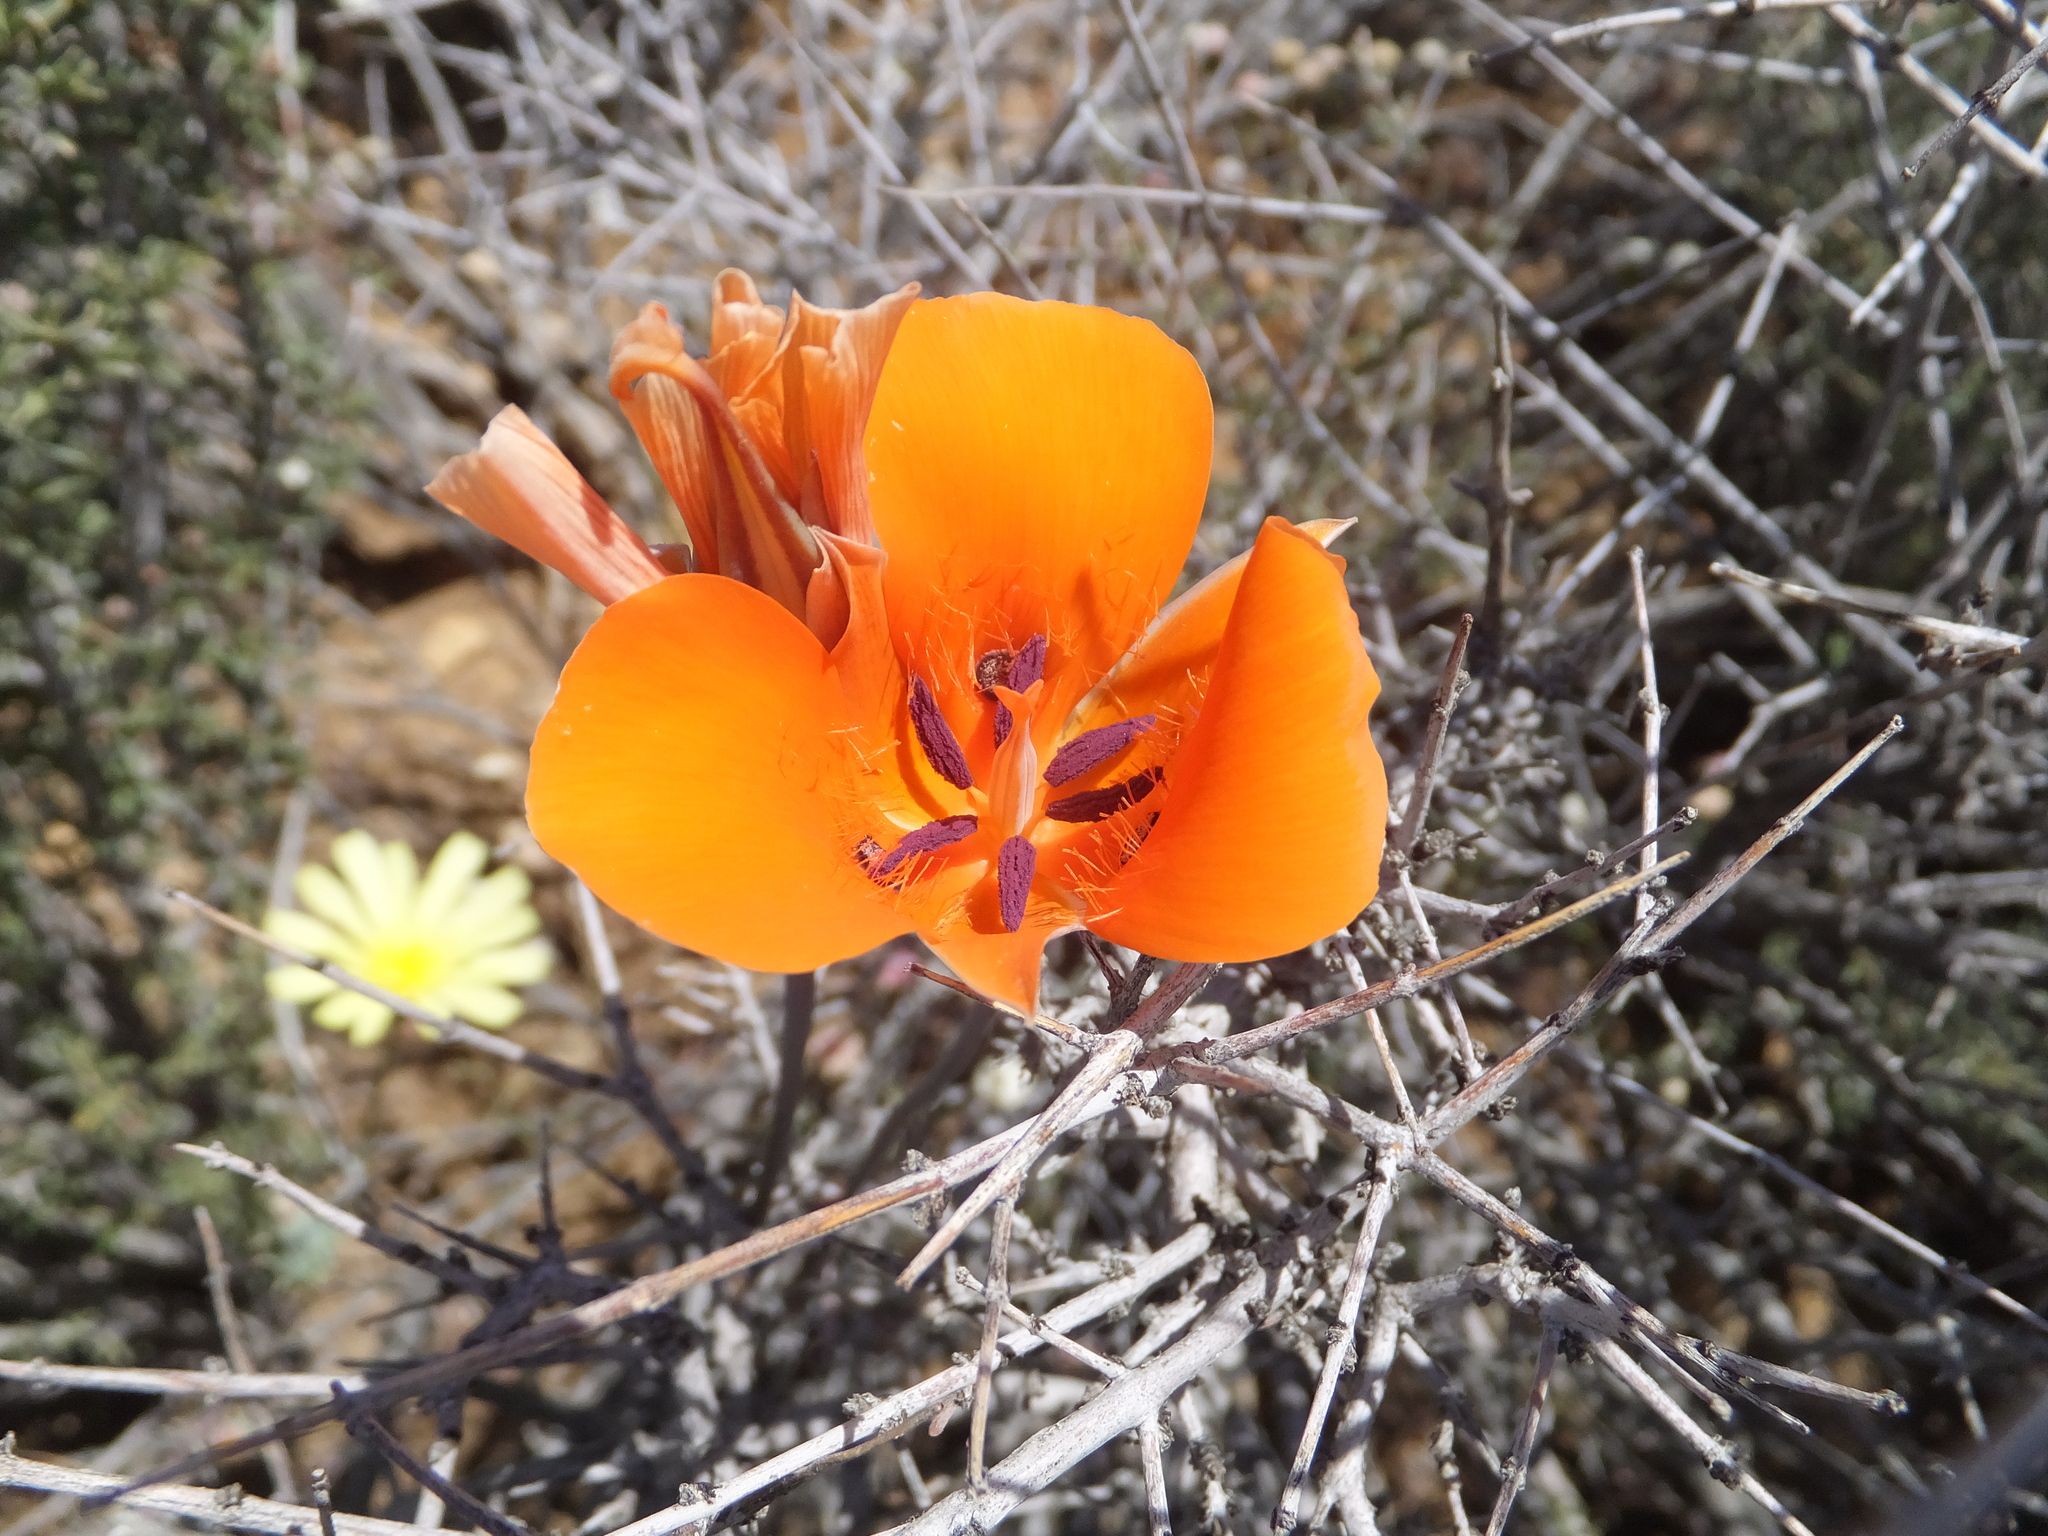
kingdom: Plantae
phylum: Tracheophyta
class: Liliopsida
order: Liliales
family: Liliaceae
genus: Calochortus
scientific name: Calochortus kennedyi
